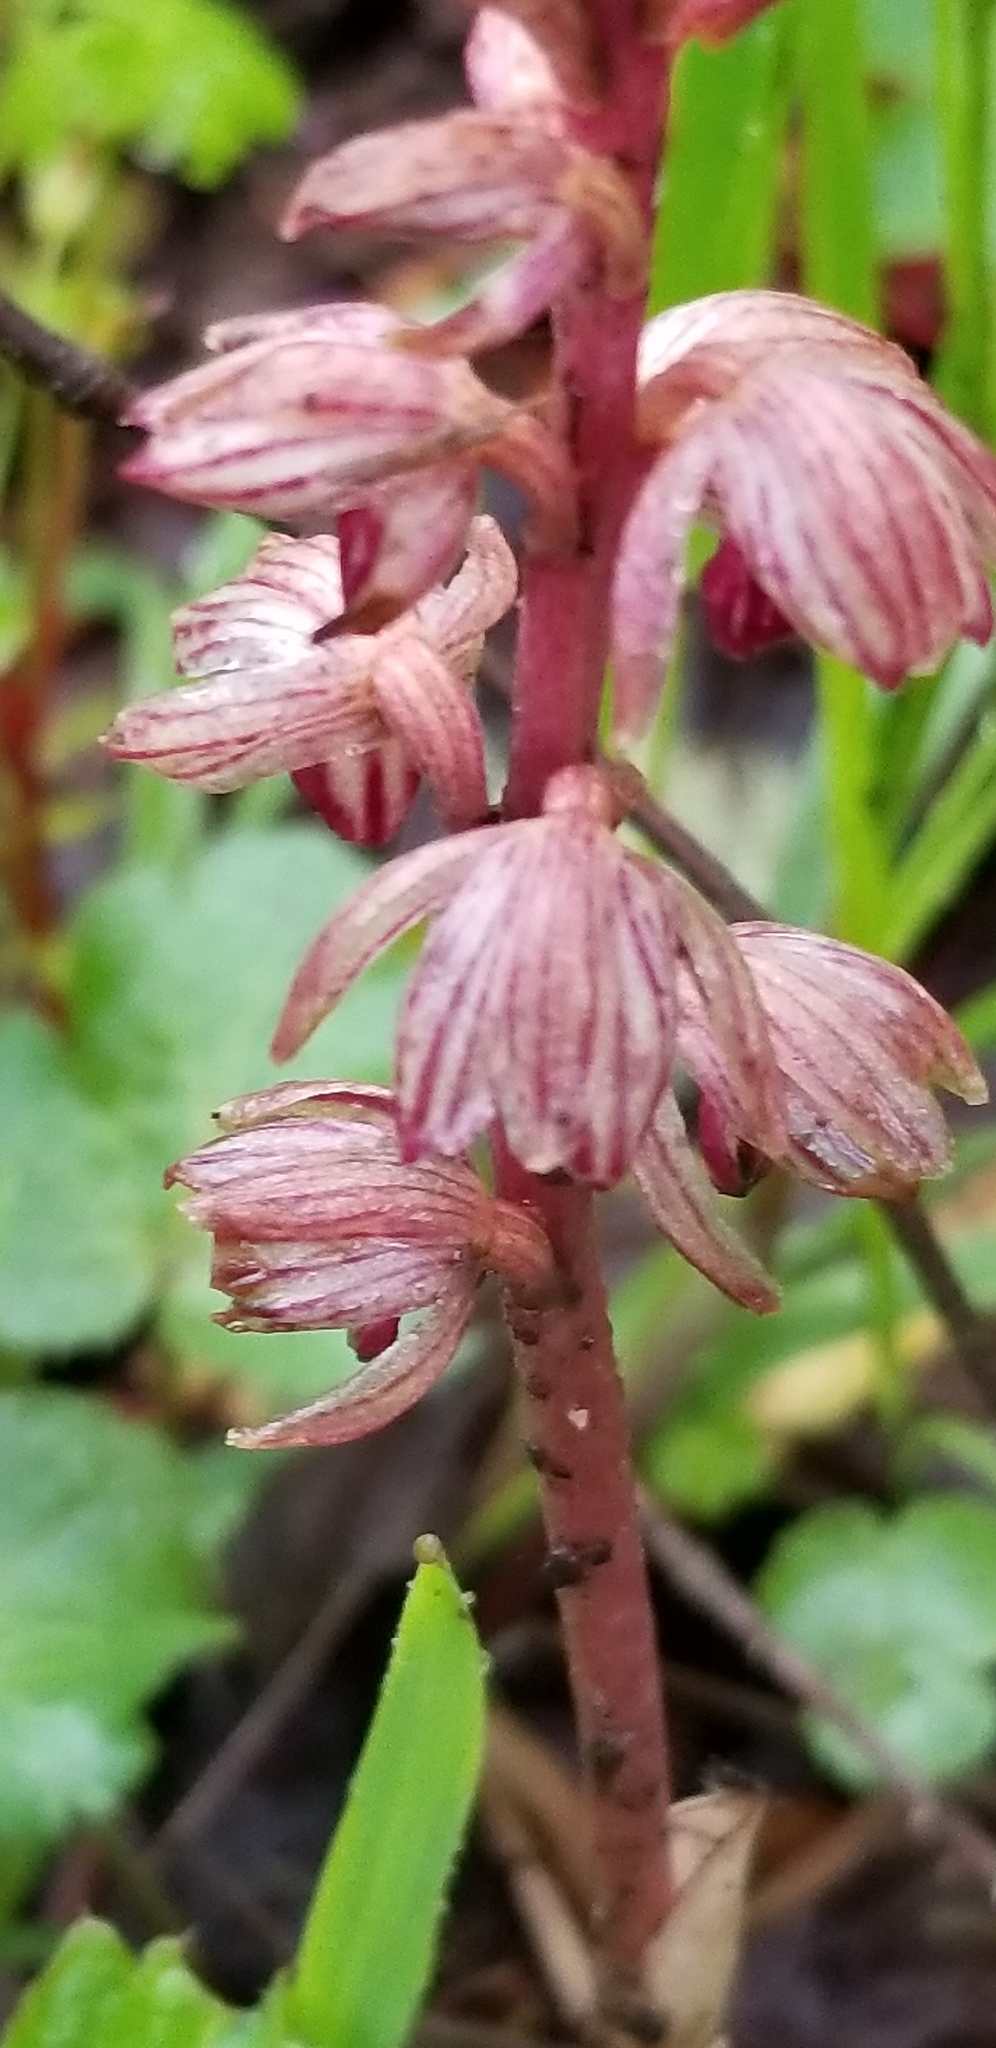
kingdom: Plantae
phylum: Tracheophyta
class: Liliopsida
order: Asparagales
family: Orchidaceae
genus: Corallorhiza
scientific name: Corallorhiza striata
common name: Hooded coralroot
